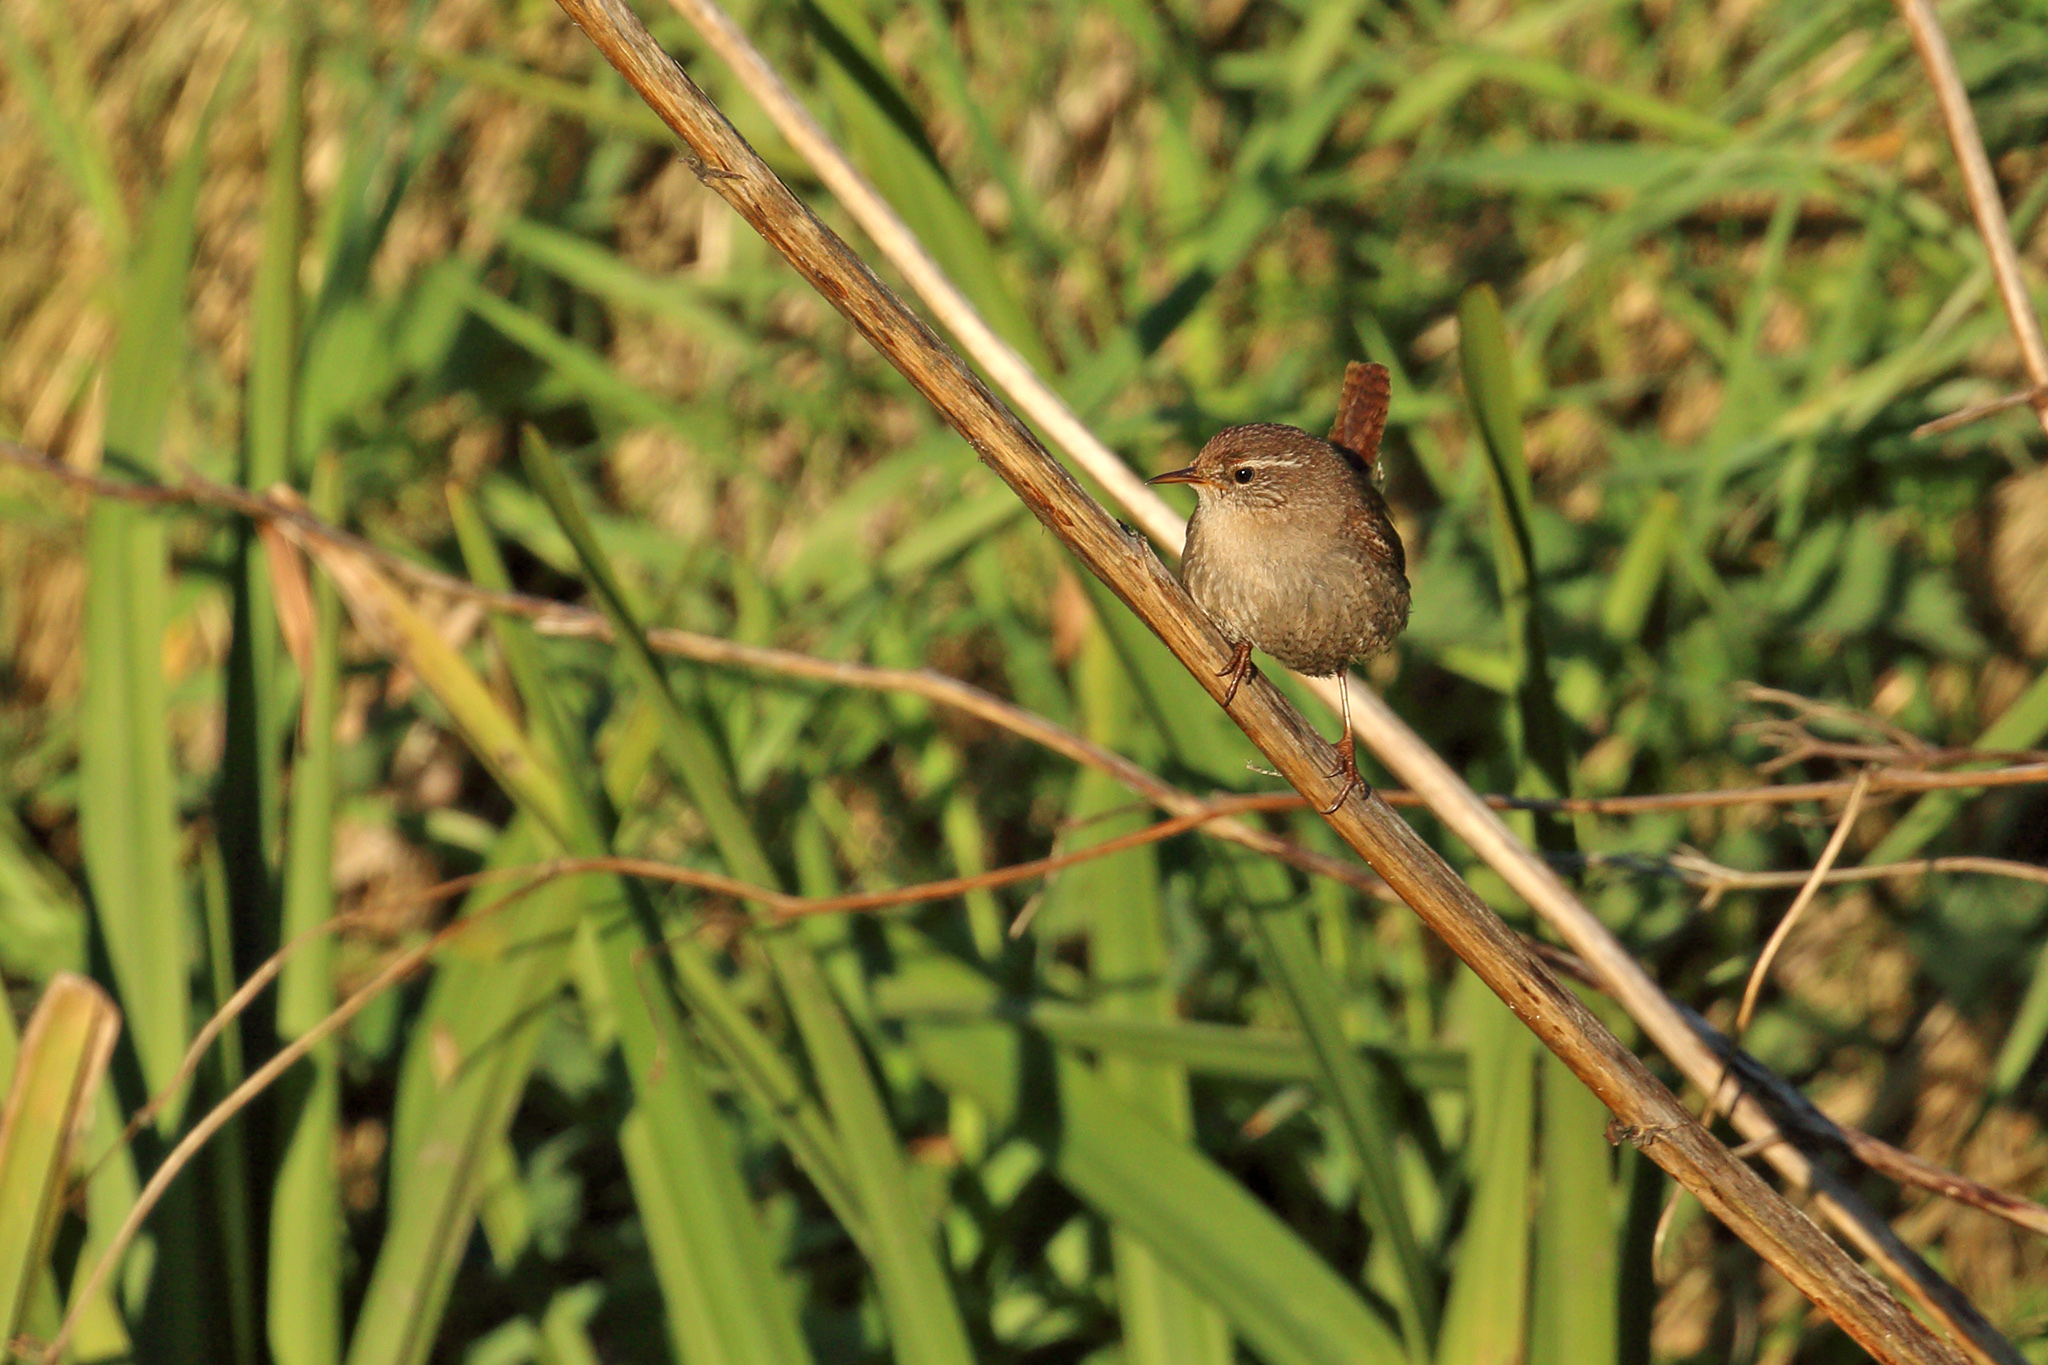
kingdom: Animalia
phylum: Chordata
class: Aves
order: Passeriformes
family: Troglodytidae
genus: Troglodytes
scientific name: Troglodytes troglodytes
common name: Eurasian wren
